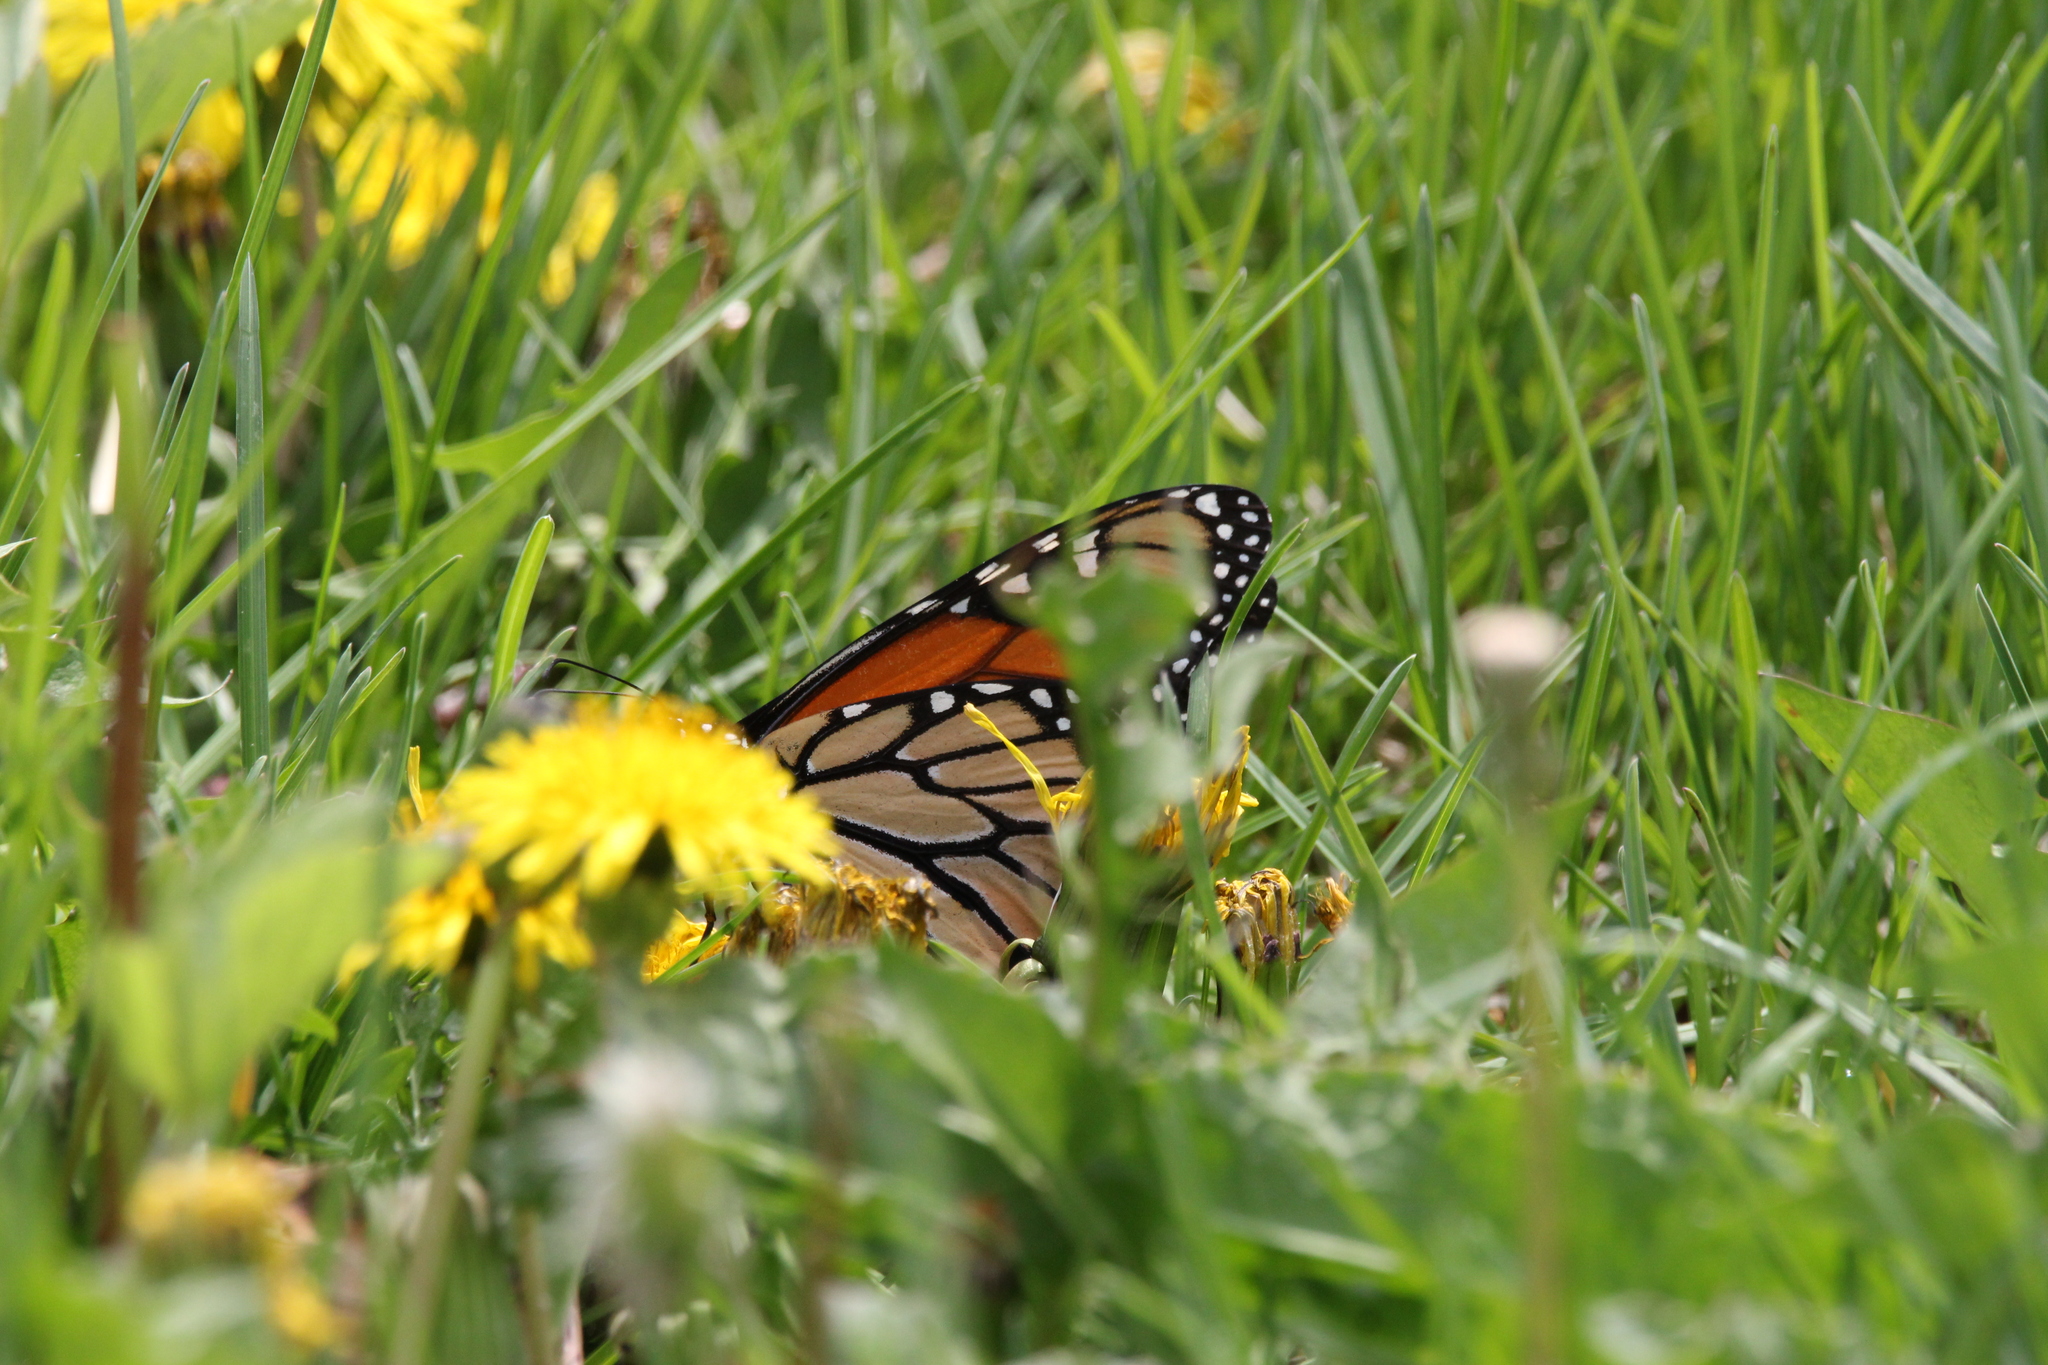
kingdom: Animalia
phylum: Arthropoda
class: Insecta
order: Lepidoptera
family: Nymphalidae
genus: Danaus
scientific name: Danaus plexippus
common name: Monarch
